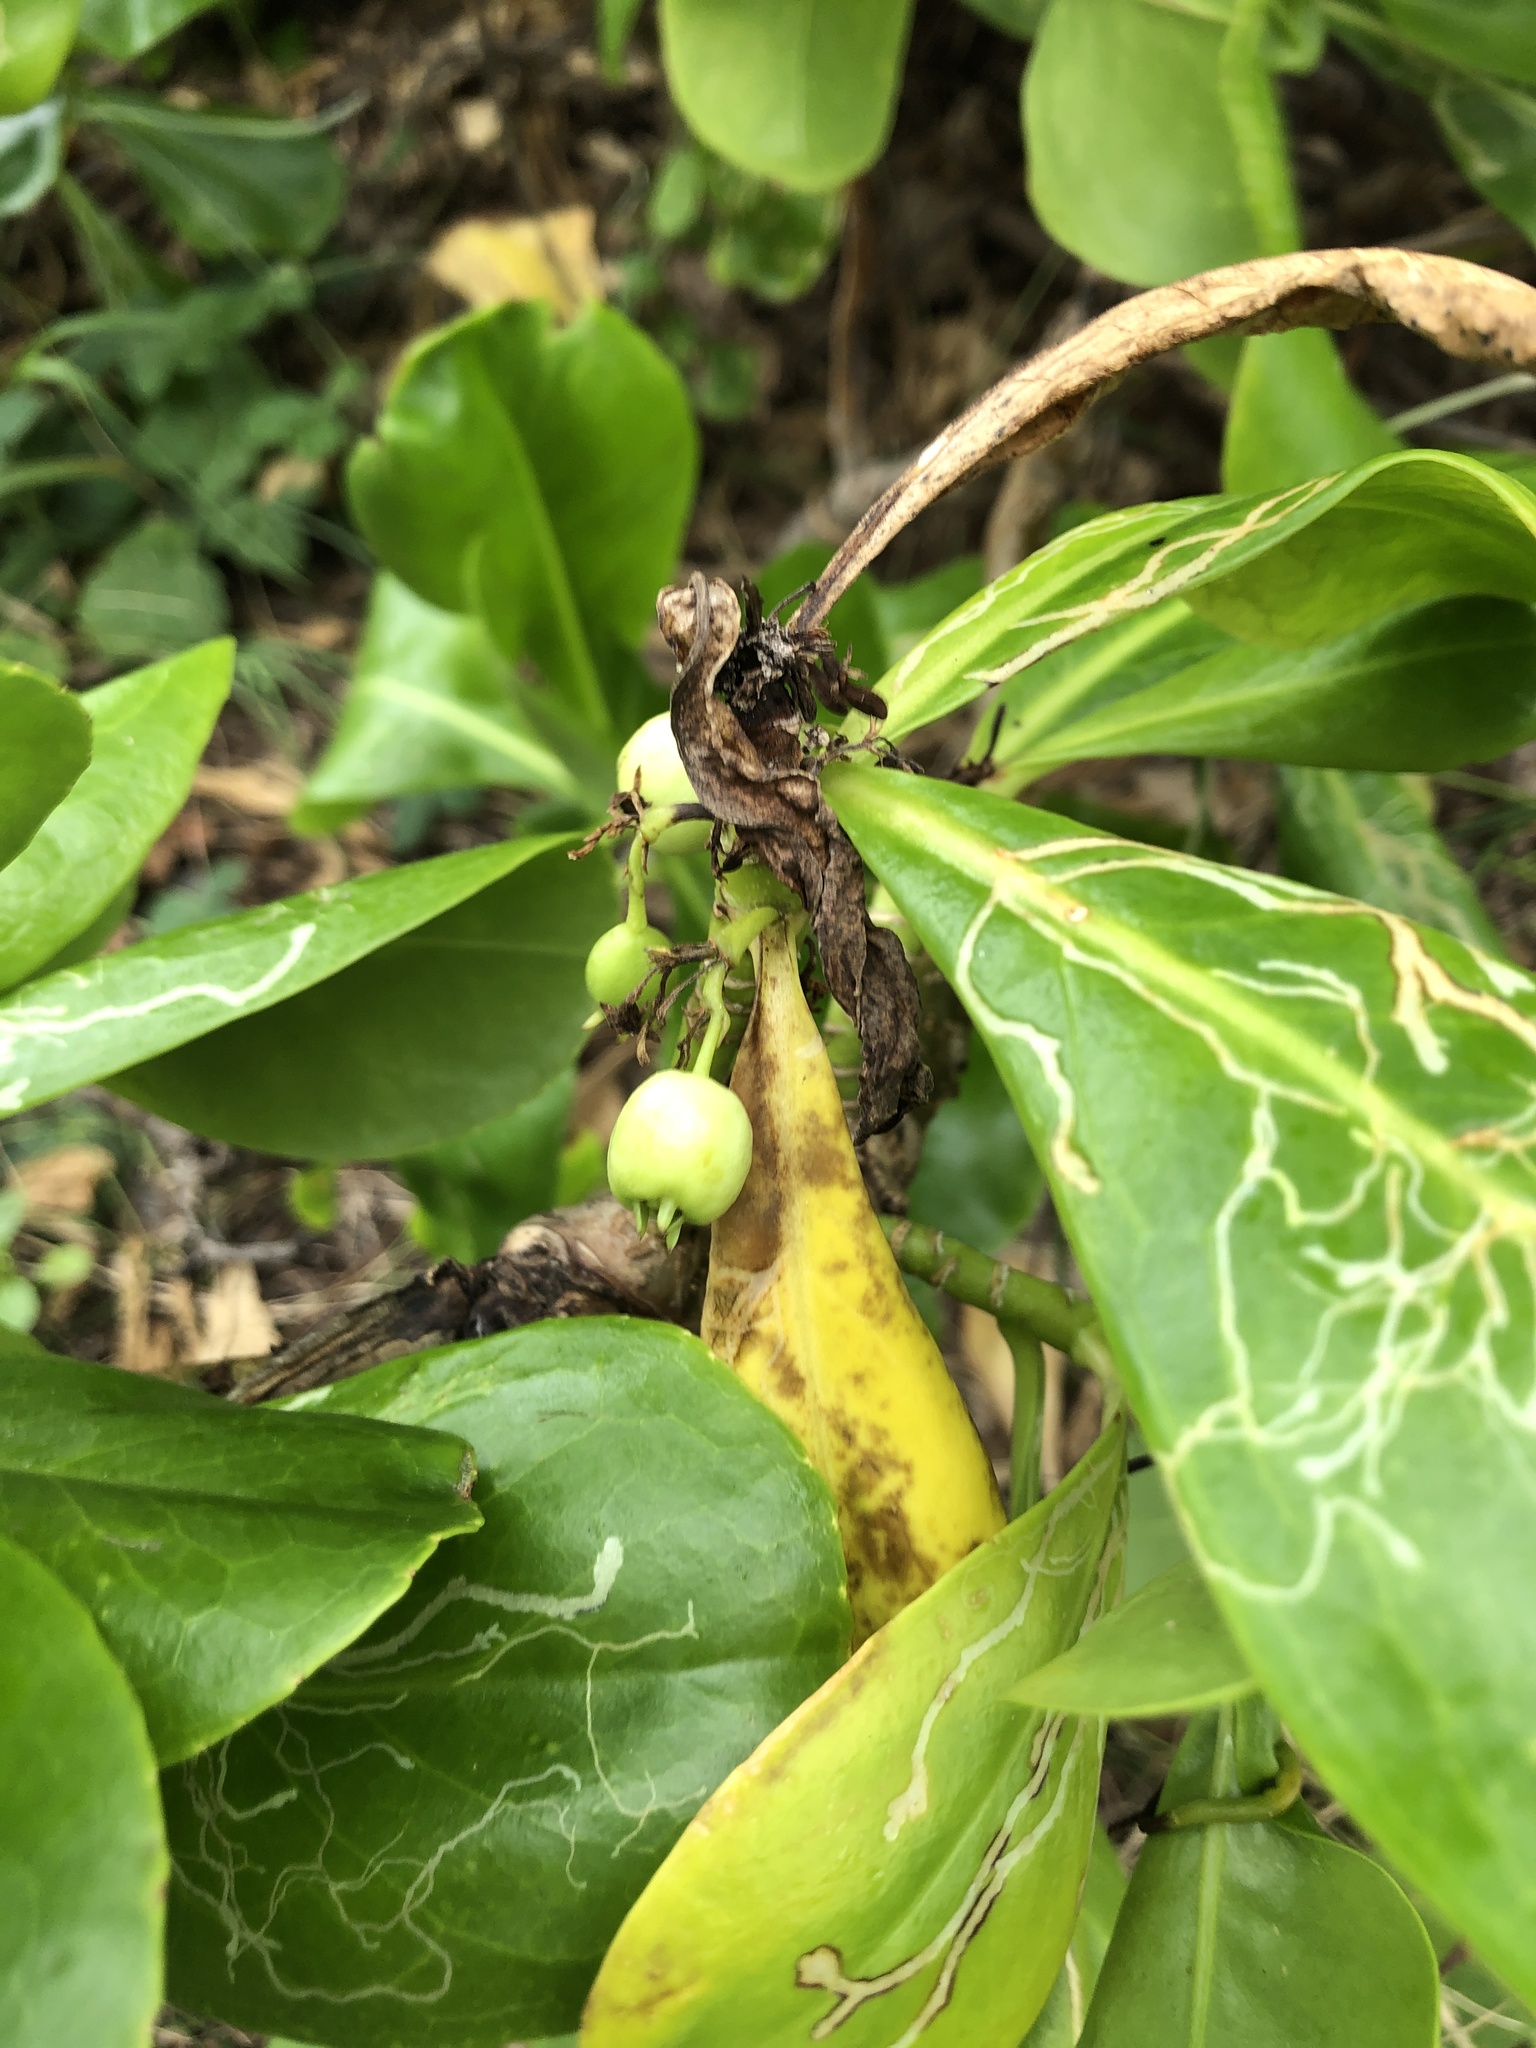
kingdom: Plantae
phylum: Tracheophyta
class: Magnoliopsida
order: Asterales
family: Goodeniaceae
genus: Scaevola
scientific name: Scaevola taccada
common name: Sea lettucetree
